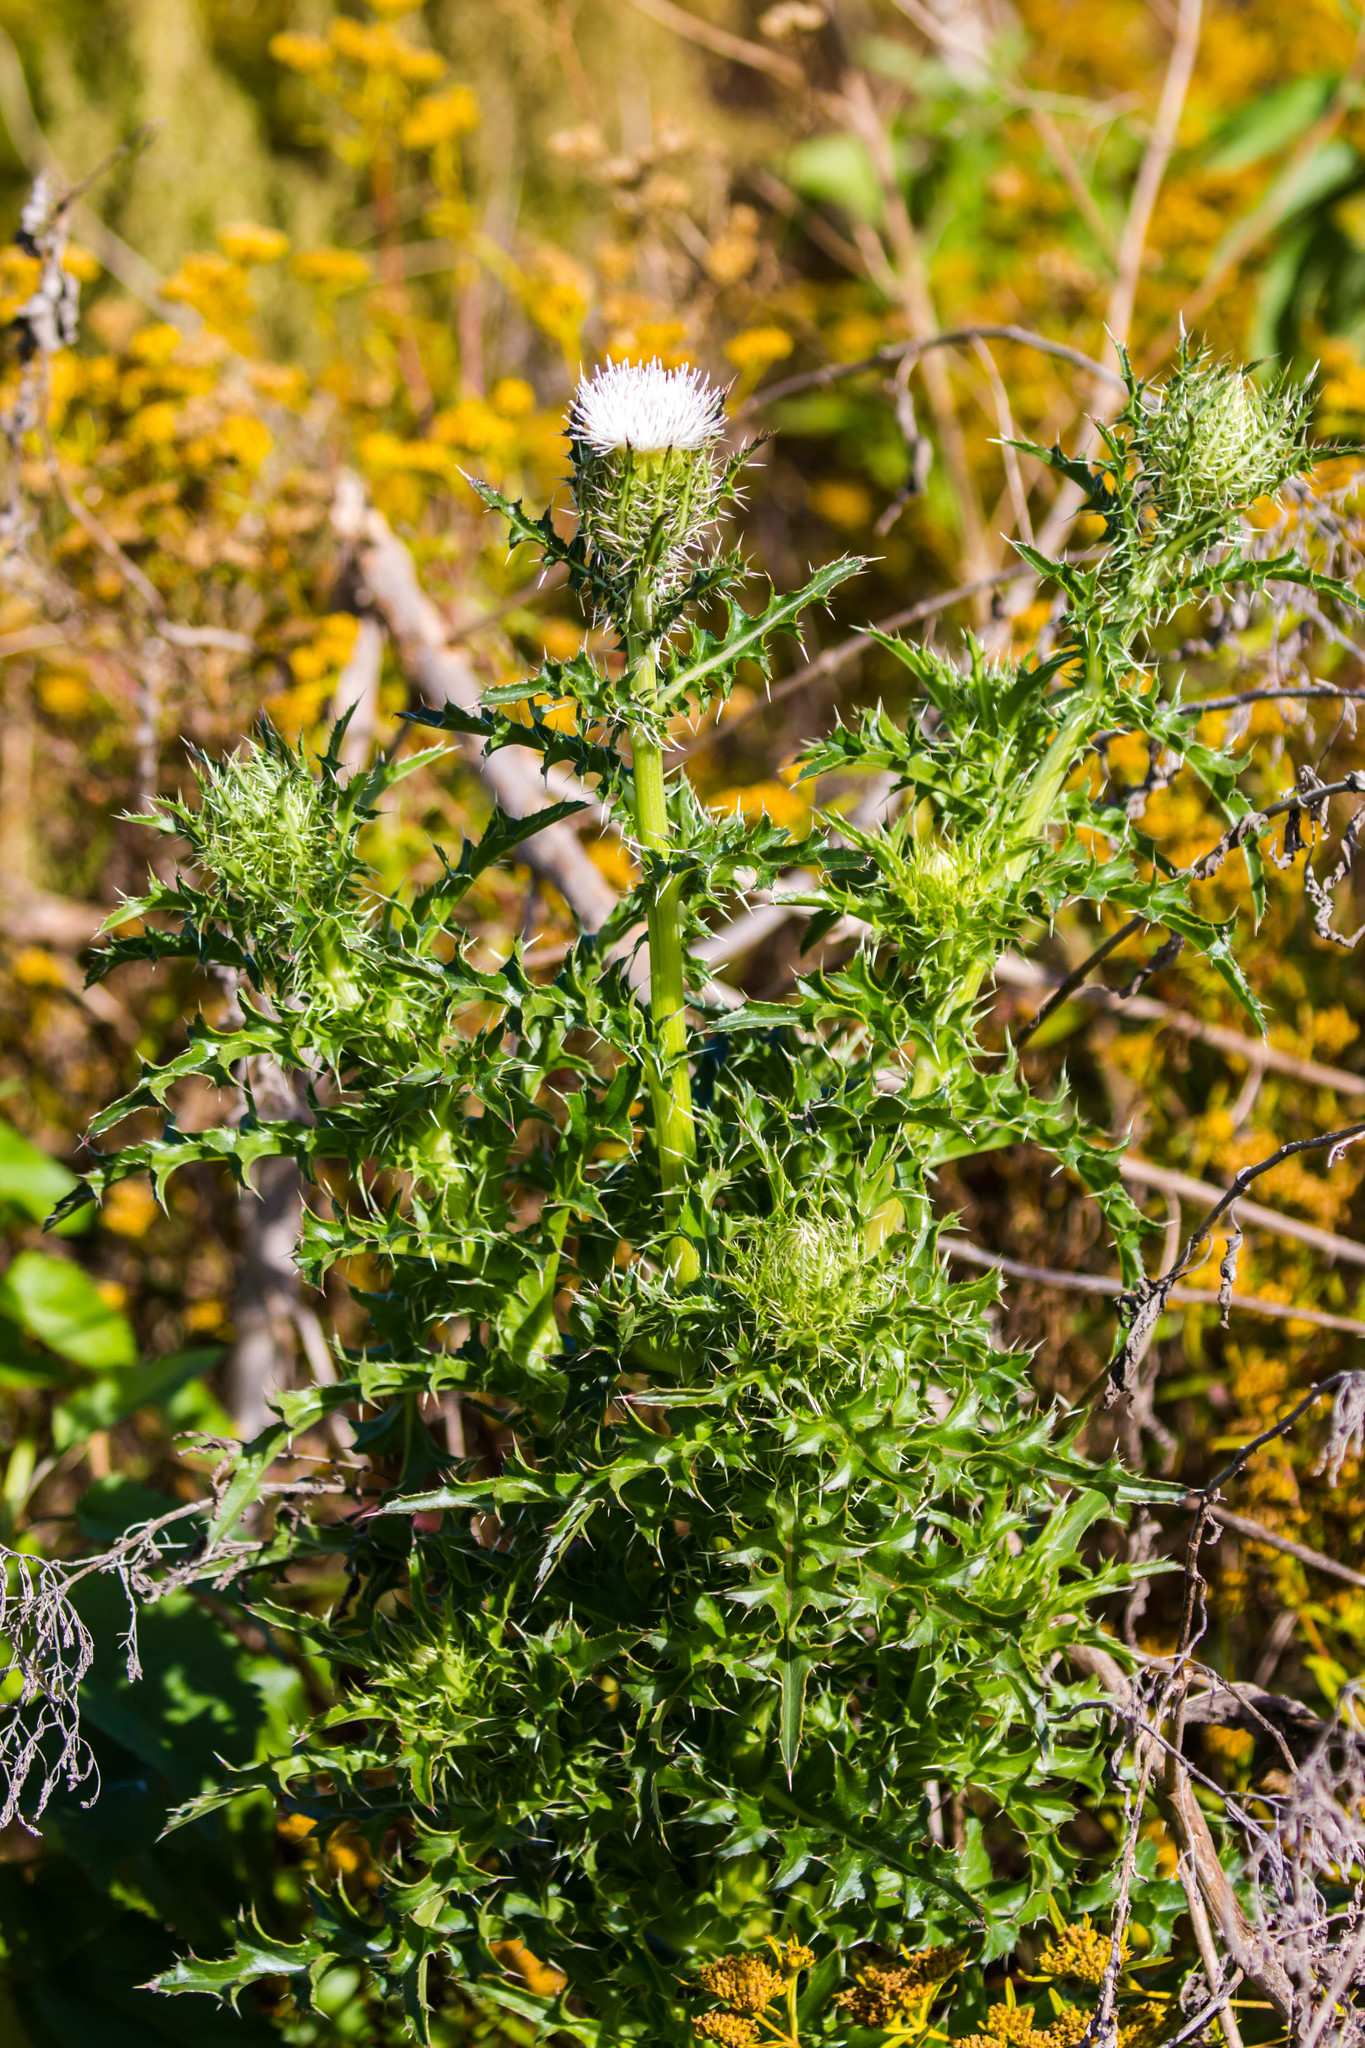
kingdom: Plantae
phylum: Tracheophyta
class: Magnoliopsida
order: Asterales
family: Asteraceae
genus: Cirsium
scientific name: Cirsium horridulum
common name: Bristly thistle
